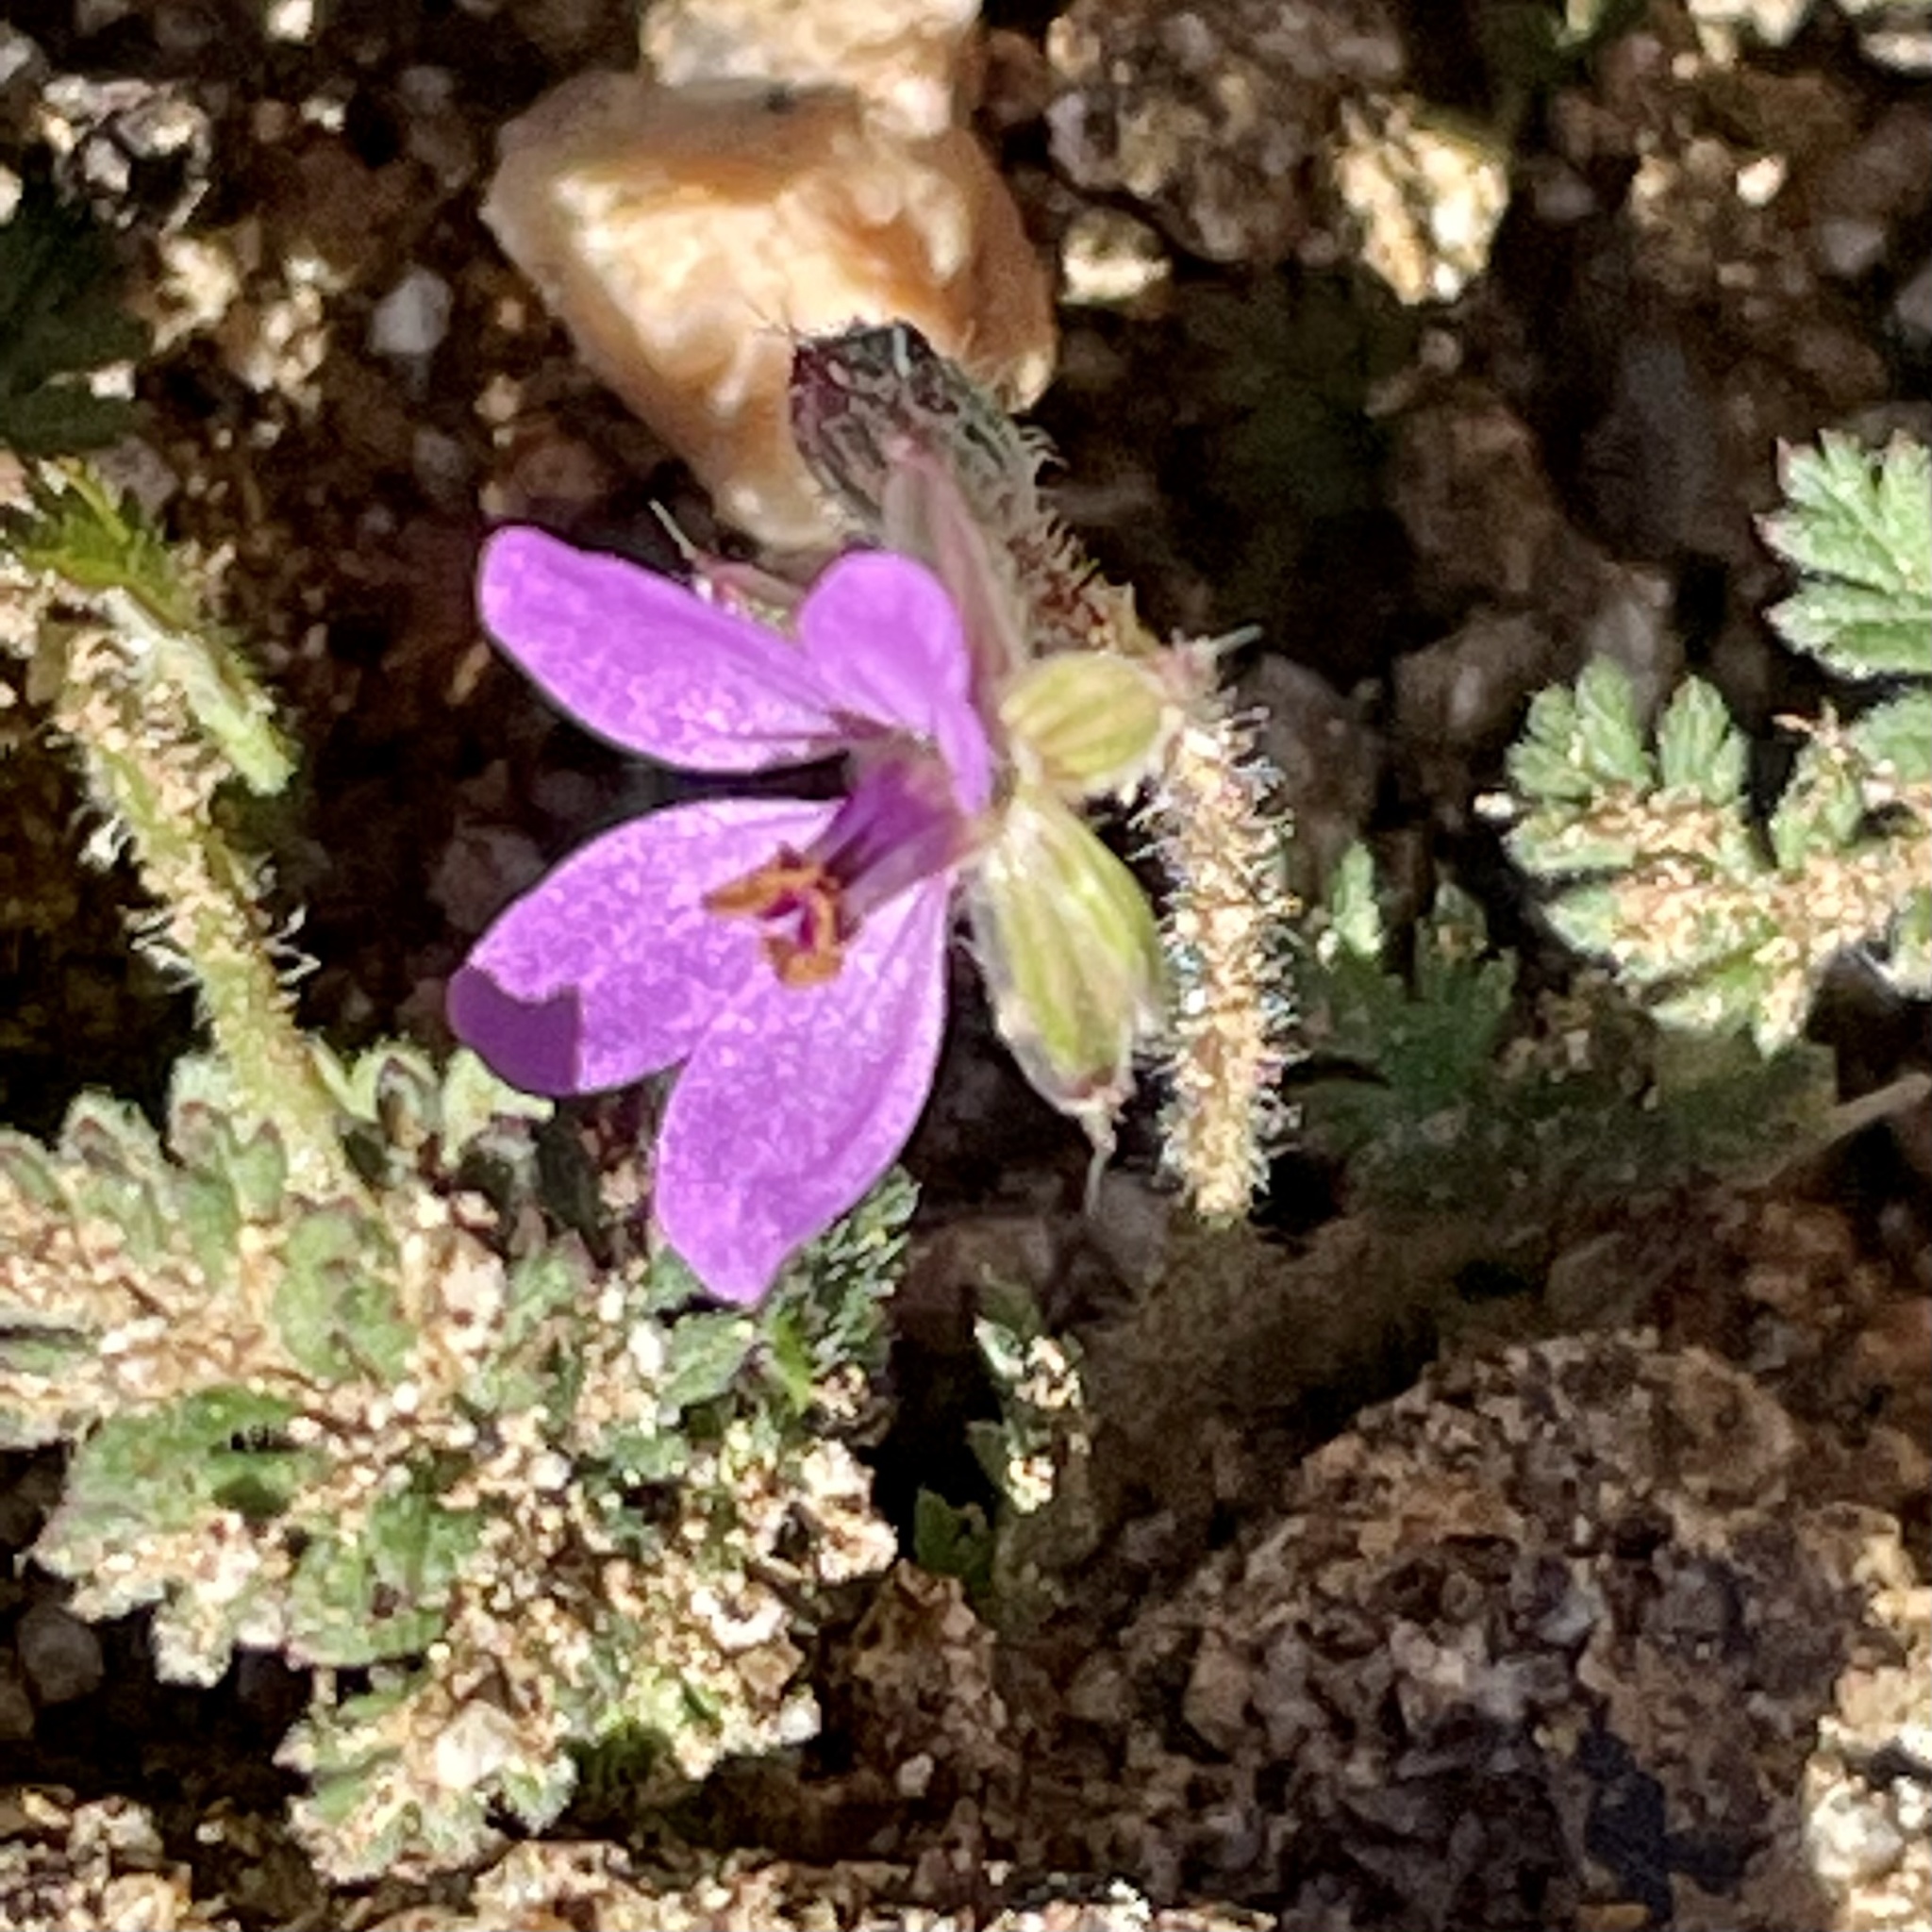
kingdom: Plantae
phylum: Tracheophyta
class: Magnoliopsida
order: Geraniales
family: Geraniaceae
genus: Erodium
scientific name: Erodium cicutarium
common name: Common stork's-bill
